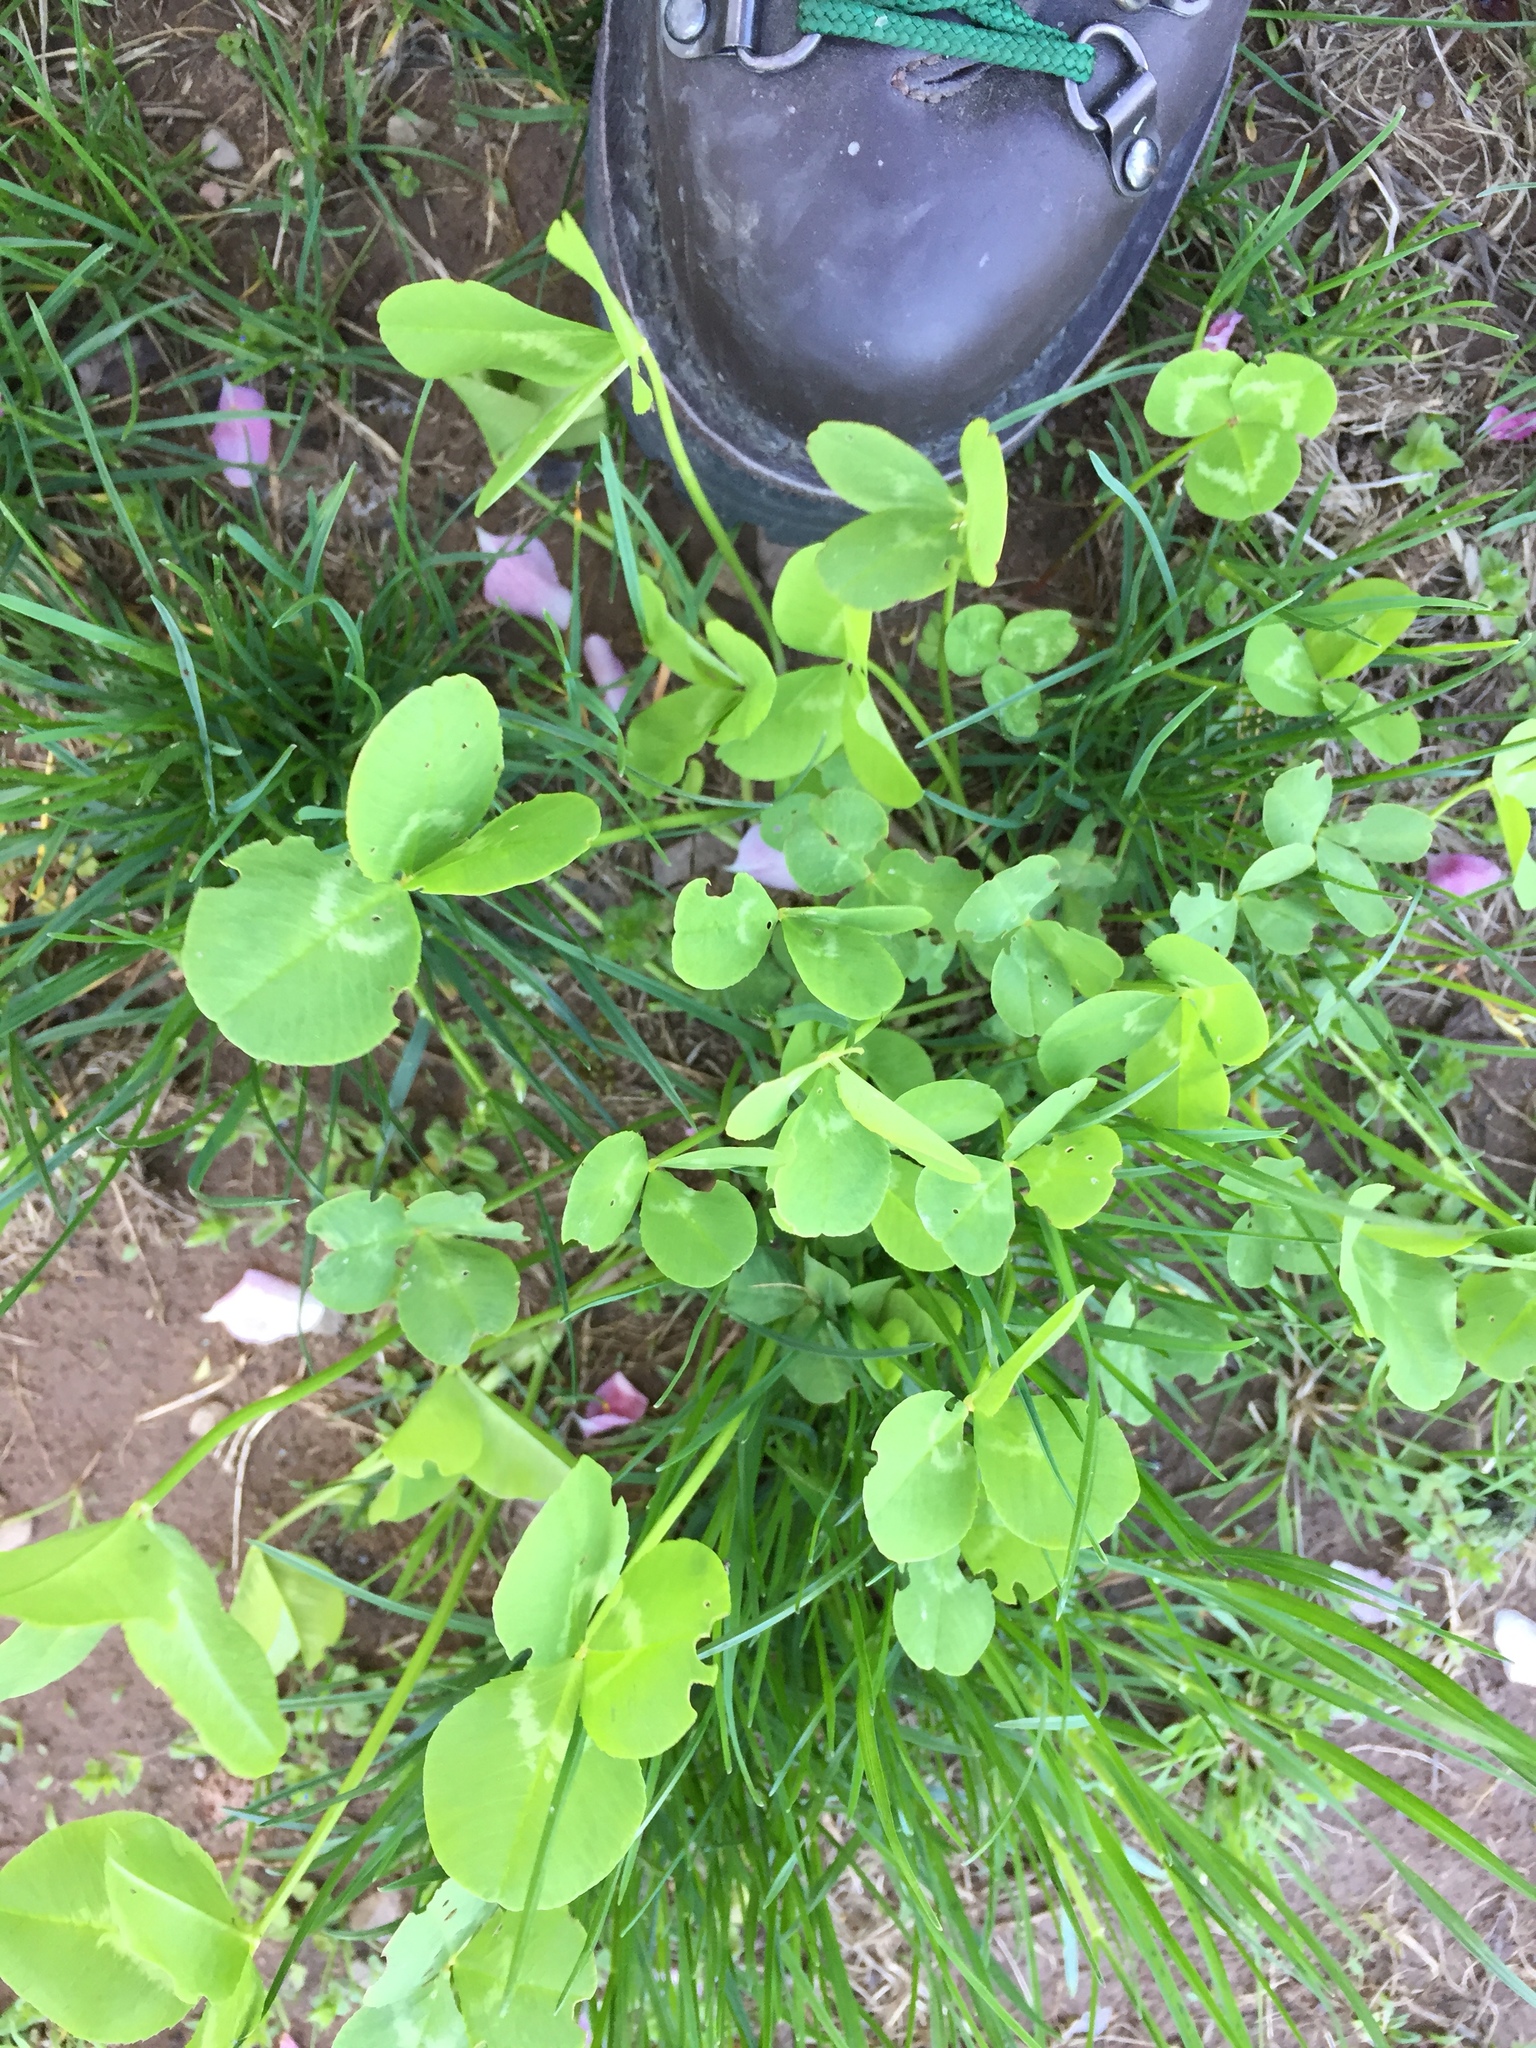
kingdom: Plantae
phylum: Tracheophyta
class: Magnoliopsida
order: Fabales
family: Fabaceae
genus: Trifolium
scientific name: Trifolium pratense
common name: Red clover
